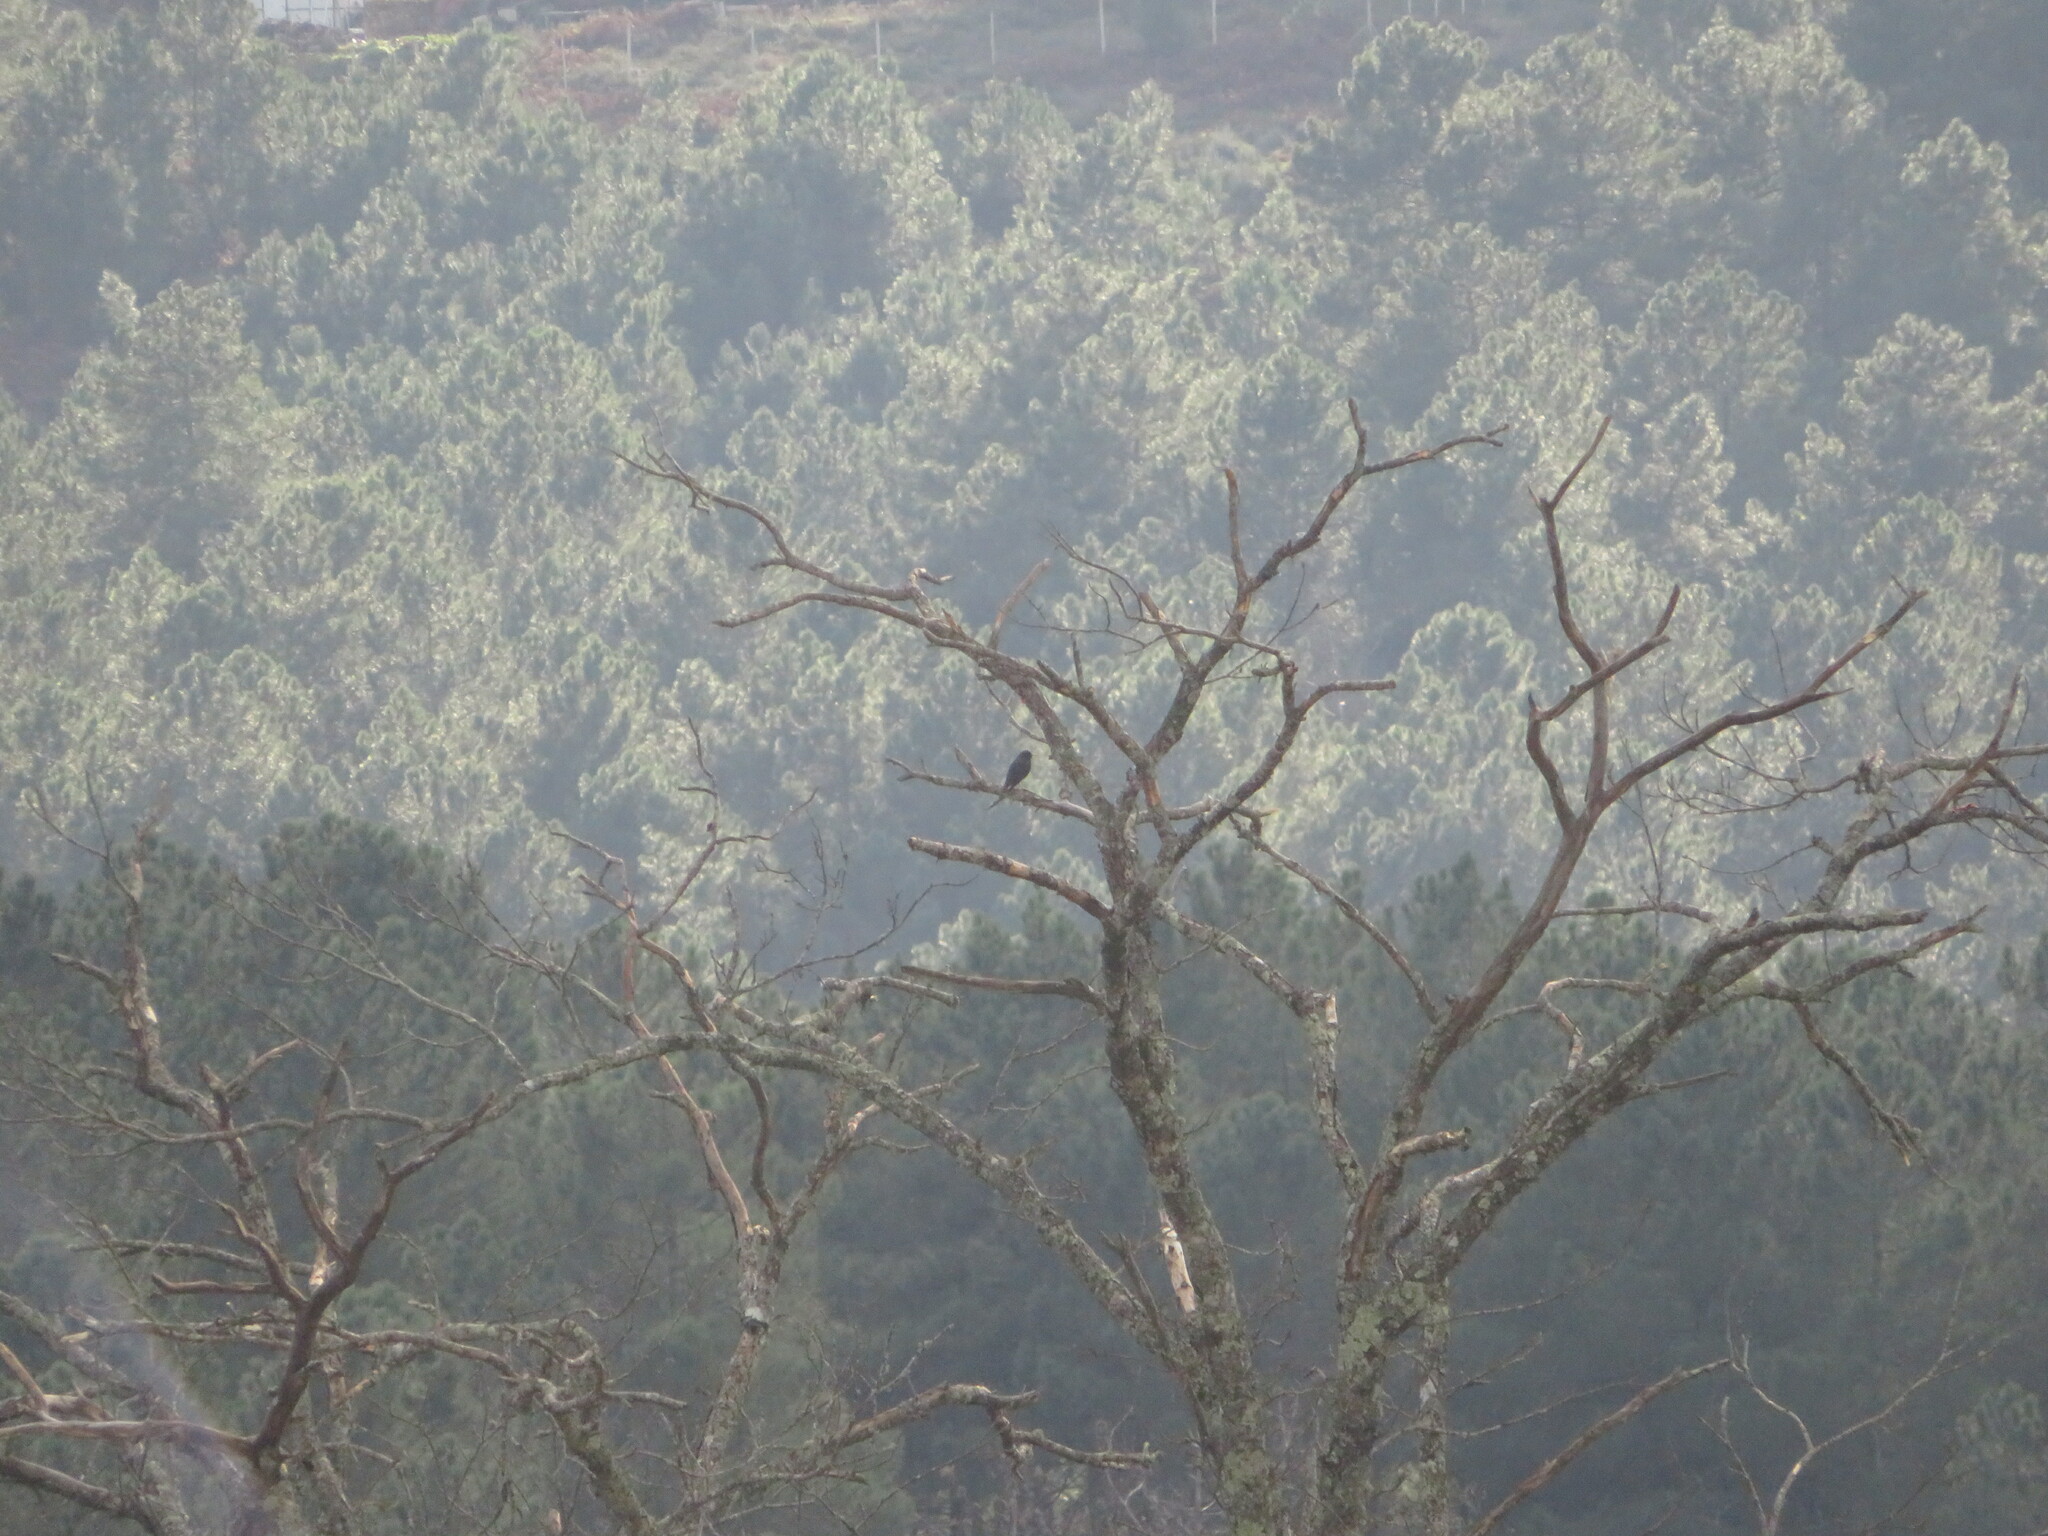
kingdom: Animalia
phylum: Chordata
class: Aves
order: Passeriformes
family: Sturnidae
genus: Sturnus
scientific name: Sturnus unicolor
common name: Spotless starling
